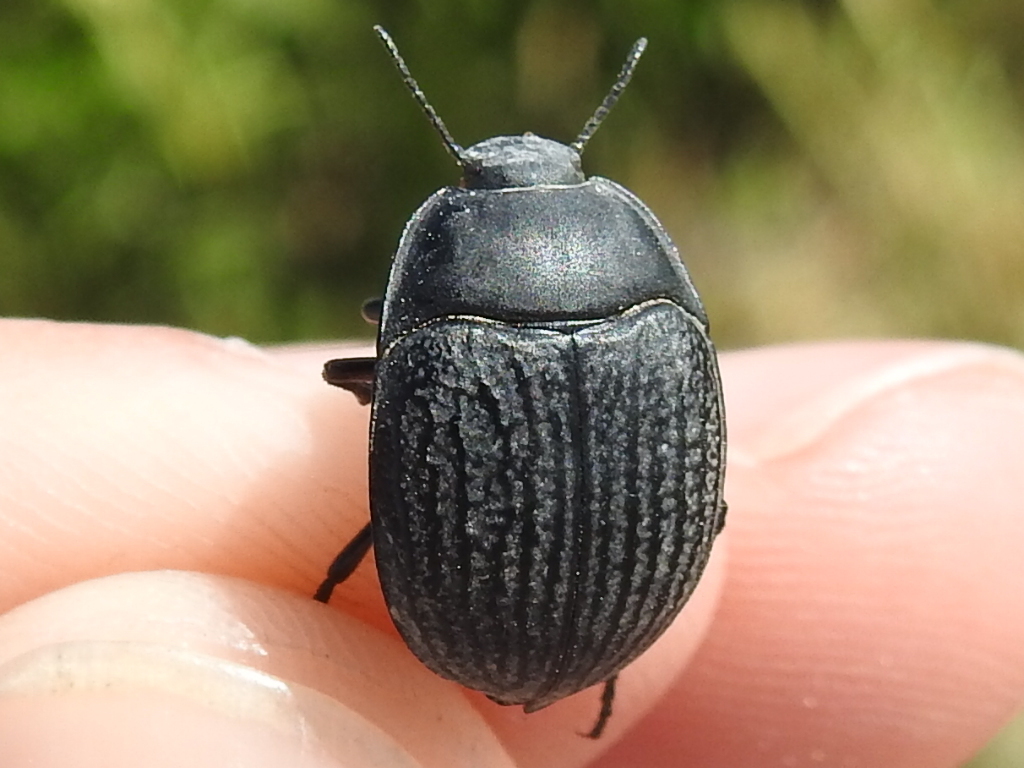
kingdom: Animalia
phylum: Arthropoda
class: Insecta
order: Coleoptera
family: Tenebrionidae
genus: Eusattus
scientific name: Eusattus reticulatus
